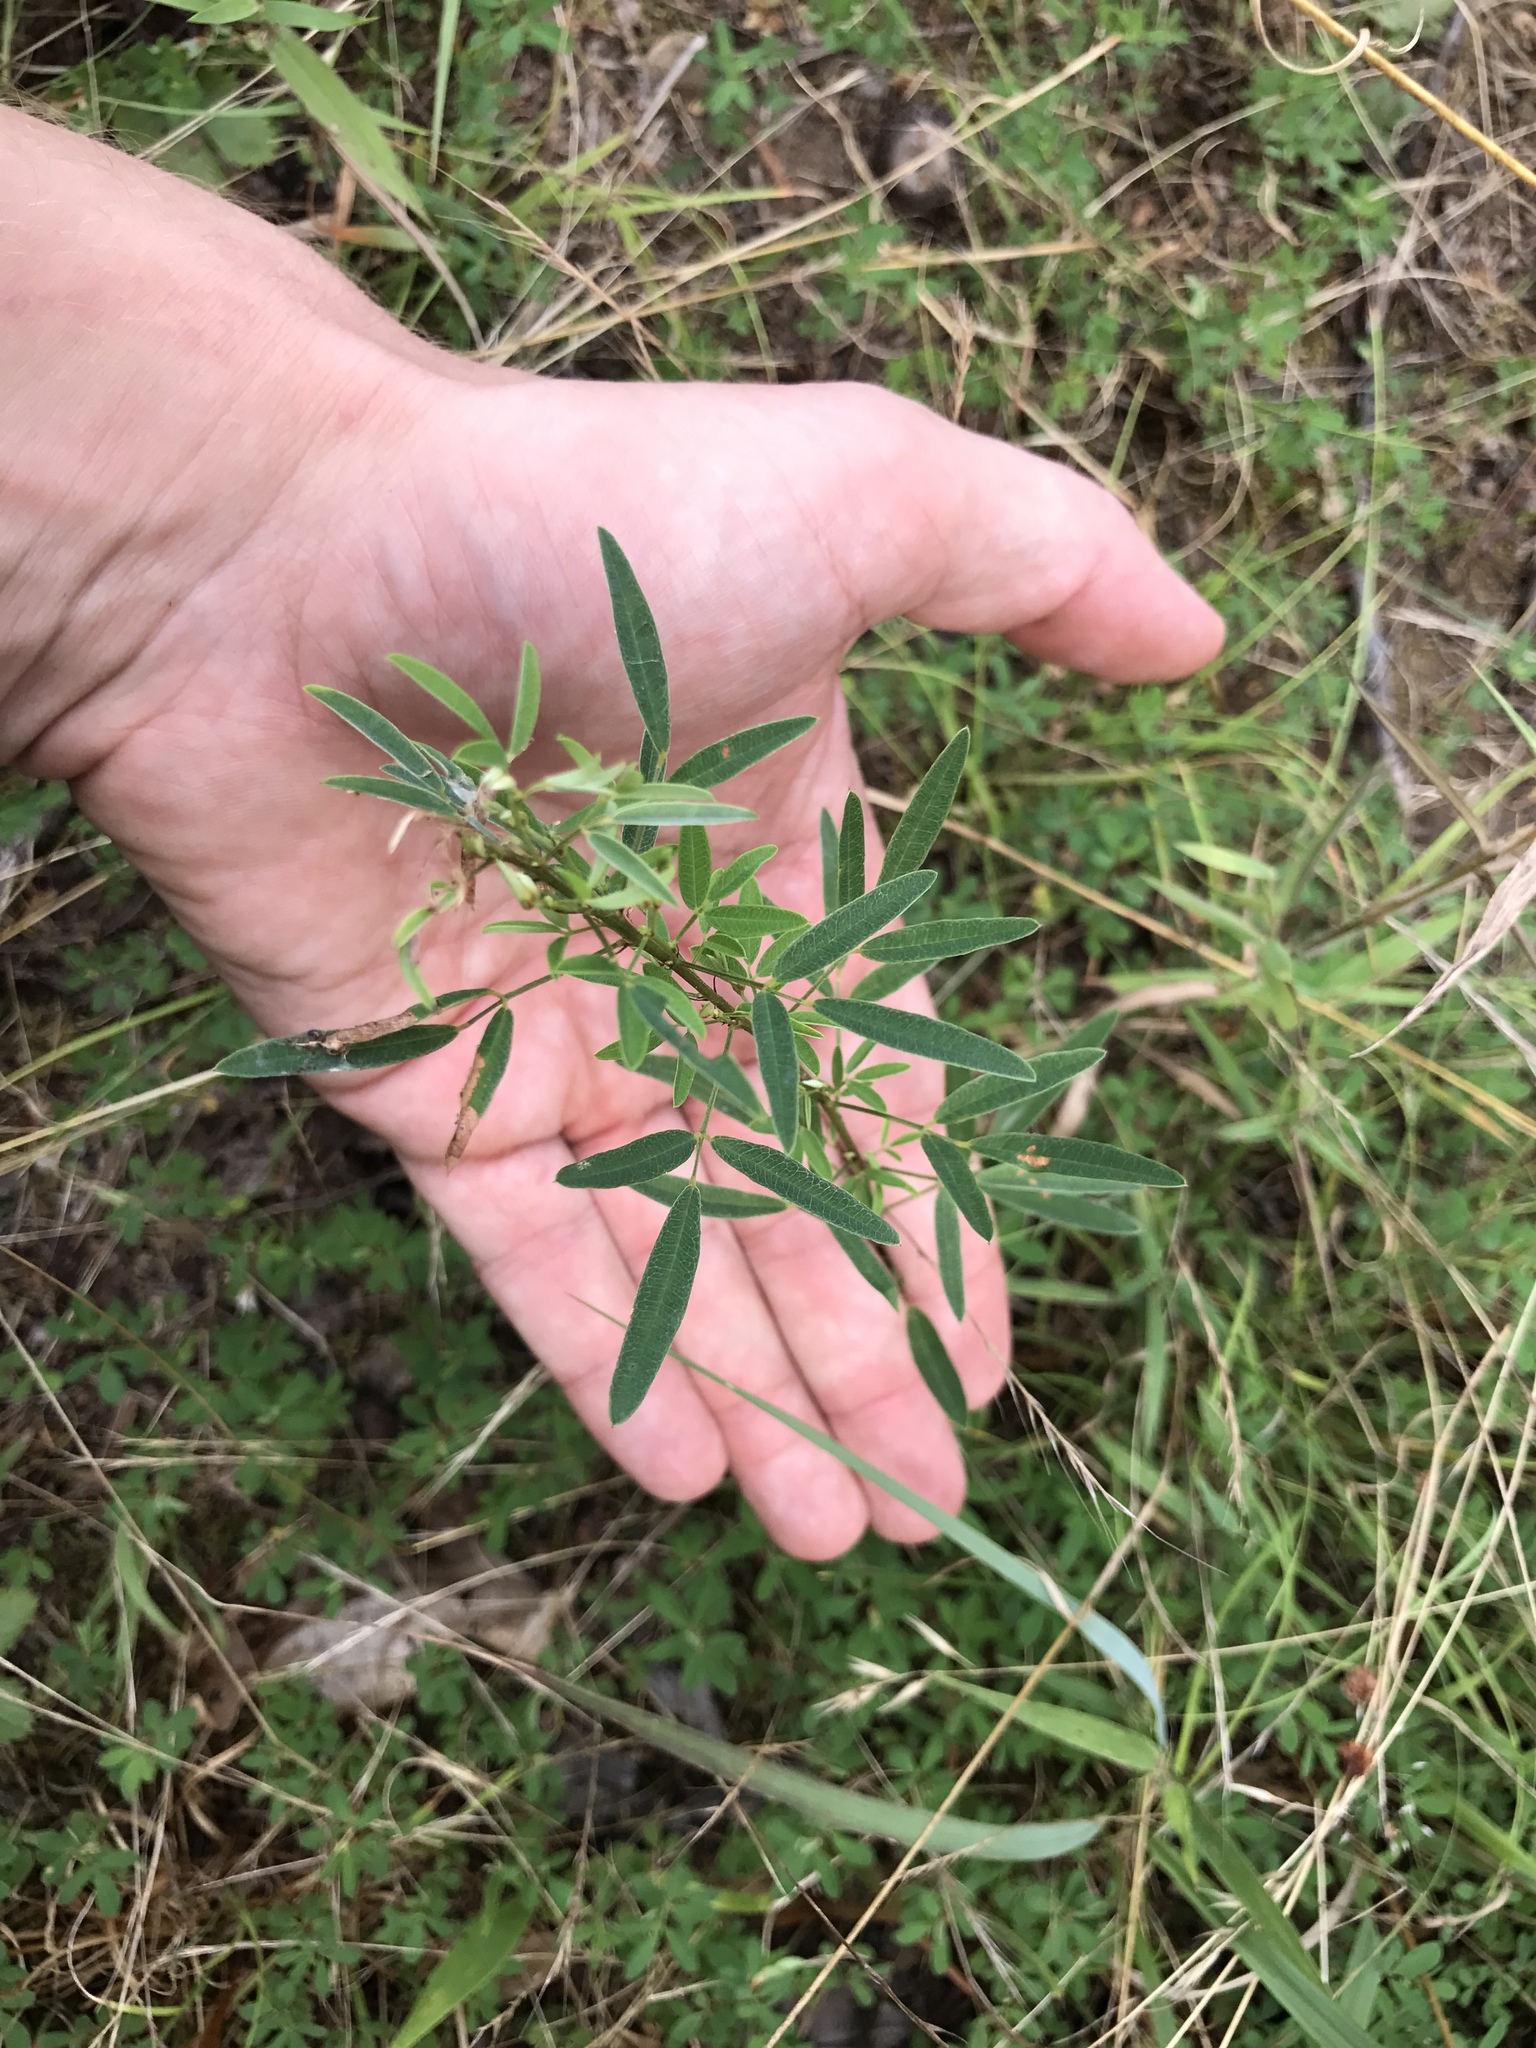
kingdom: Plantae
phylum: Tracheophyta
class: Magnoliopsida
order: Fabales
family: Fabaceae
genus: Lespedeza
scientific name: Lespedeza virginica
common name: Slender bush-clover
